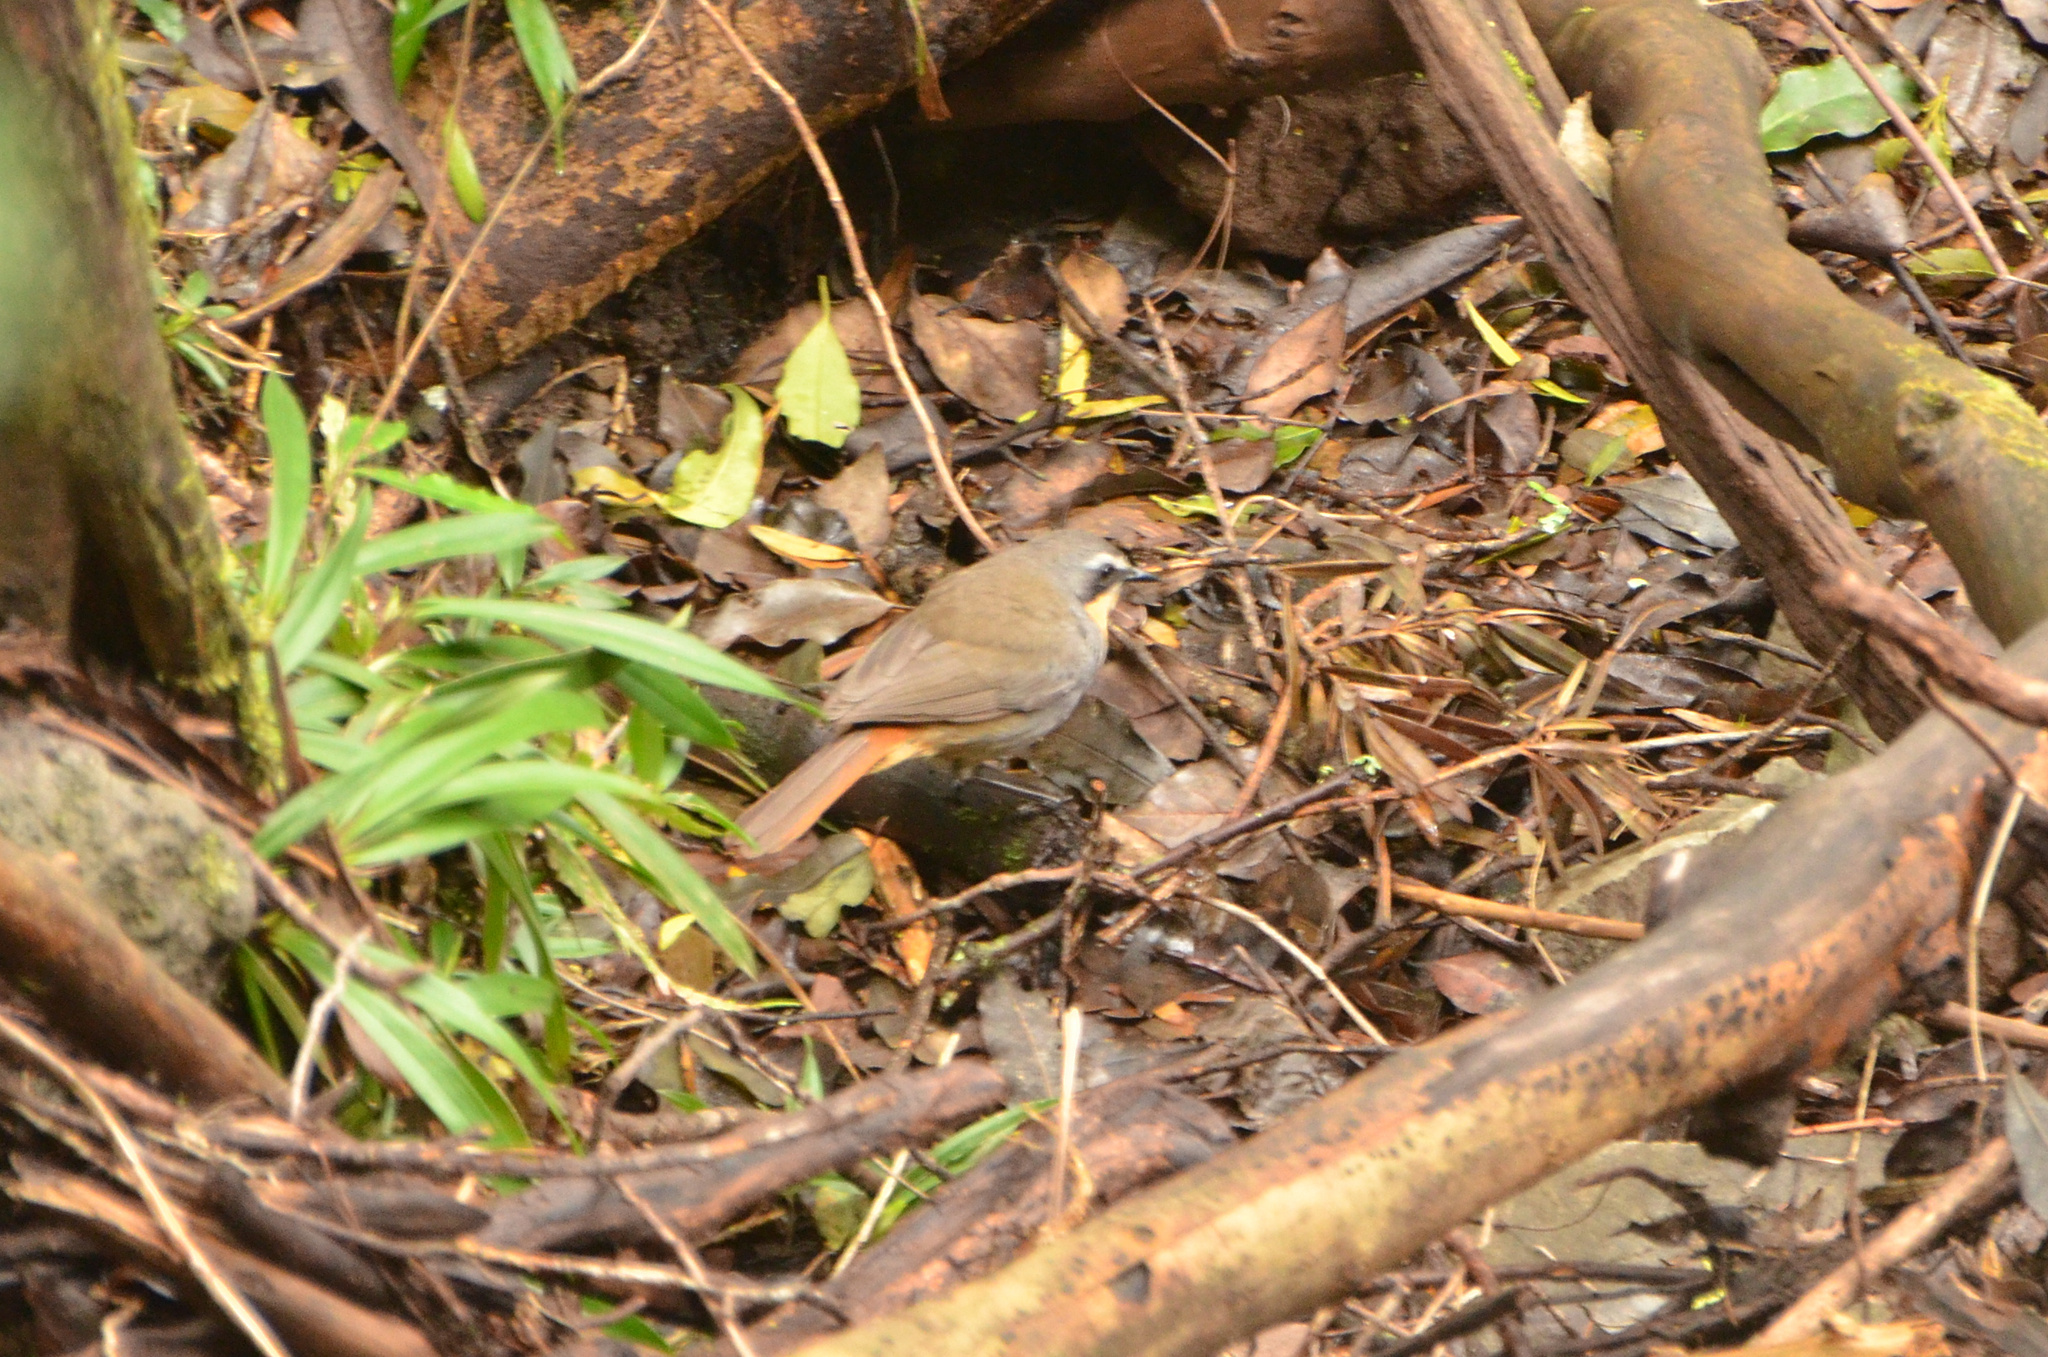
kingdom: Animalia
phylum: Chordata
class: Aves
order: Passeriformes
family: Muscicapidae
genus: Cossypha
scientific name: Cossypha caffra
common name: Cape robin-chat
